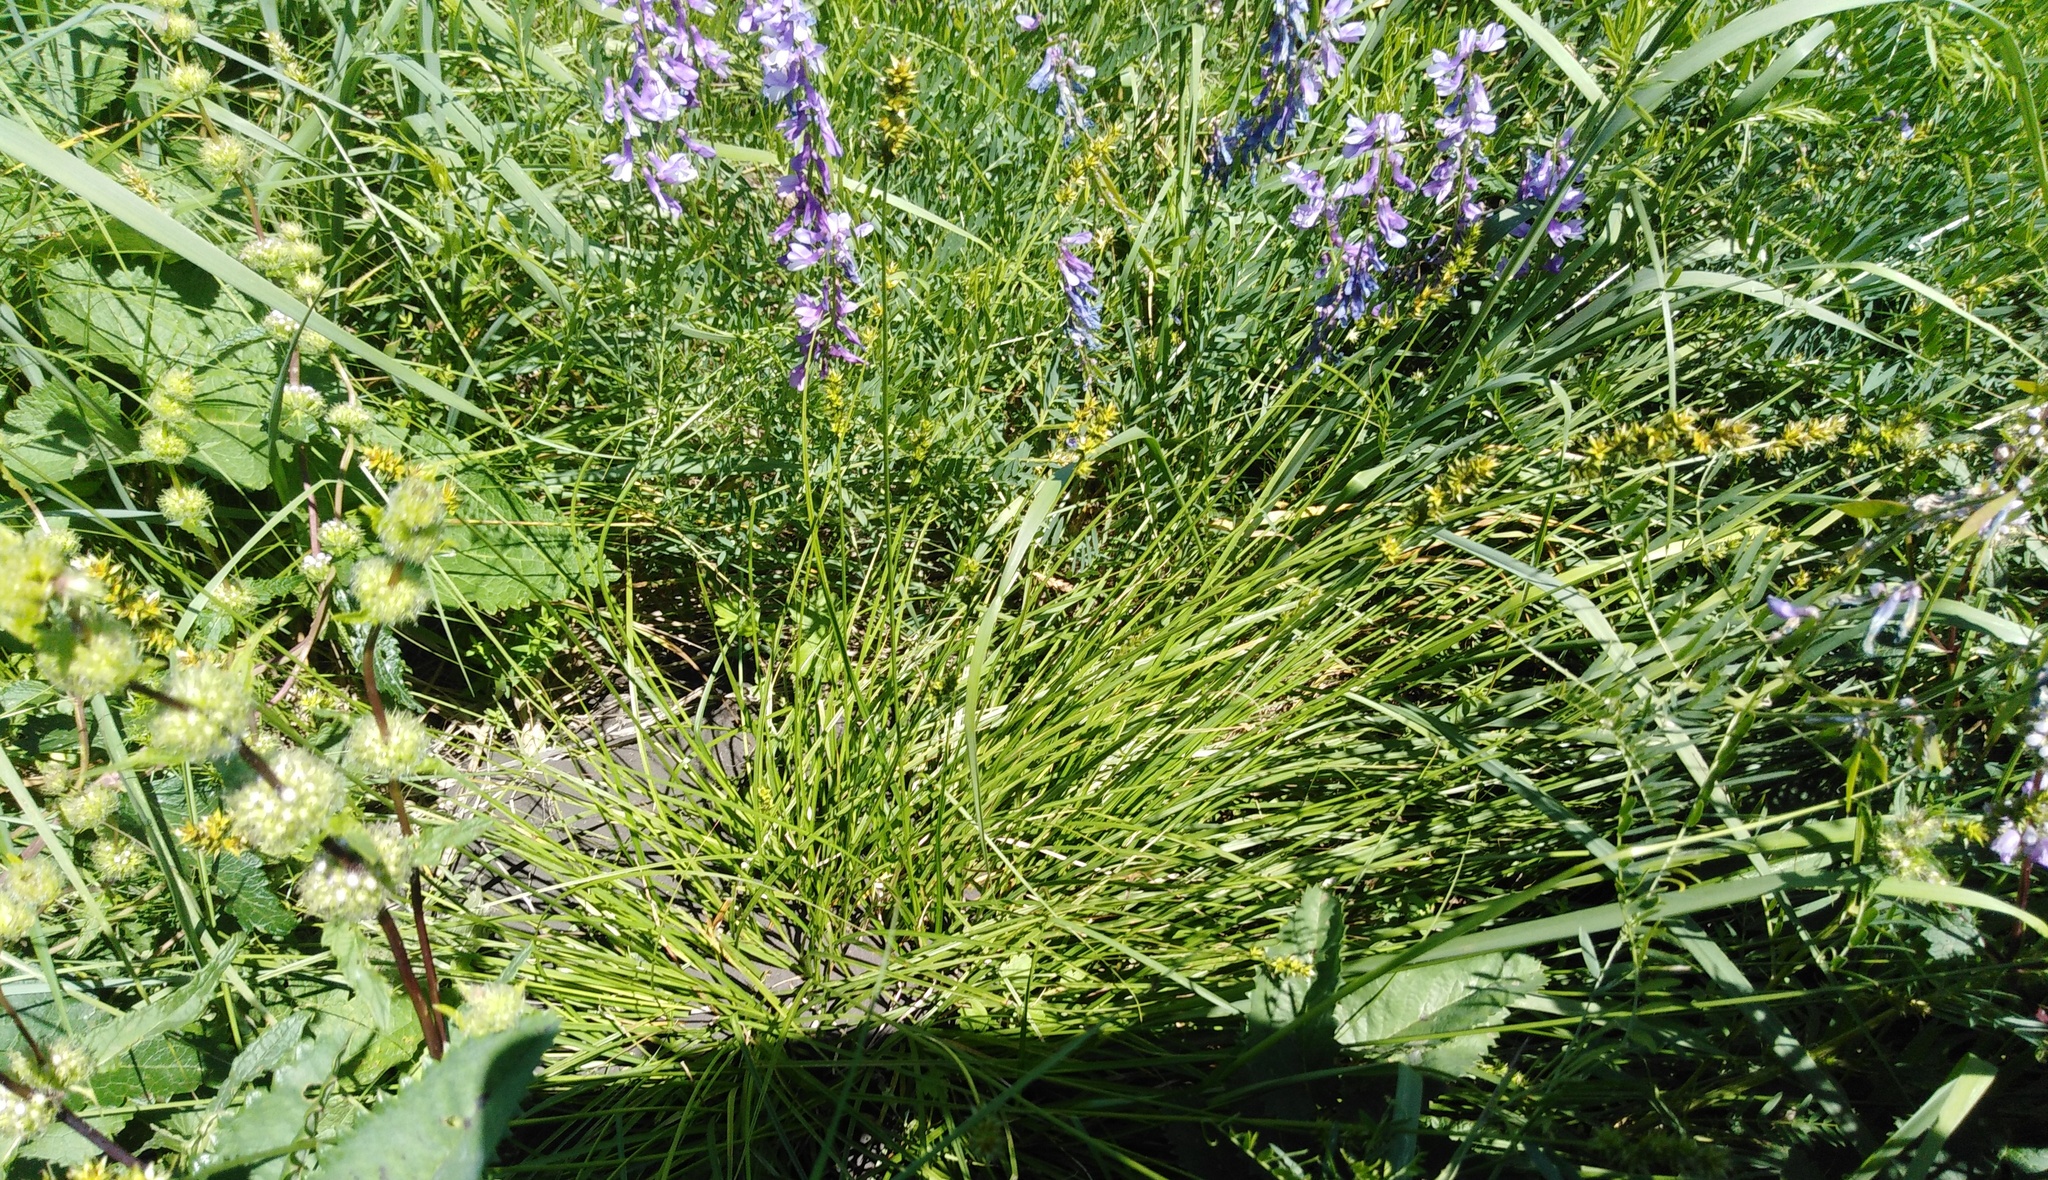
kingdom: Plantae
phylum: Tracheophyta
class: Liliopsida
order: Poales
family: Cyperaceae
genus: Carex
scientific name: Carex spicata
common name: Spiked sedge
